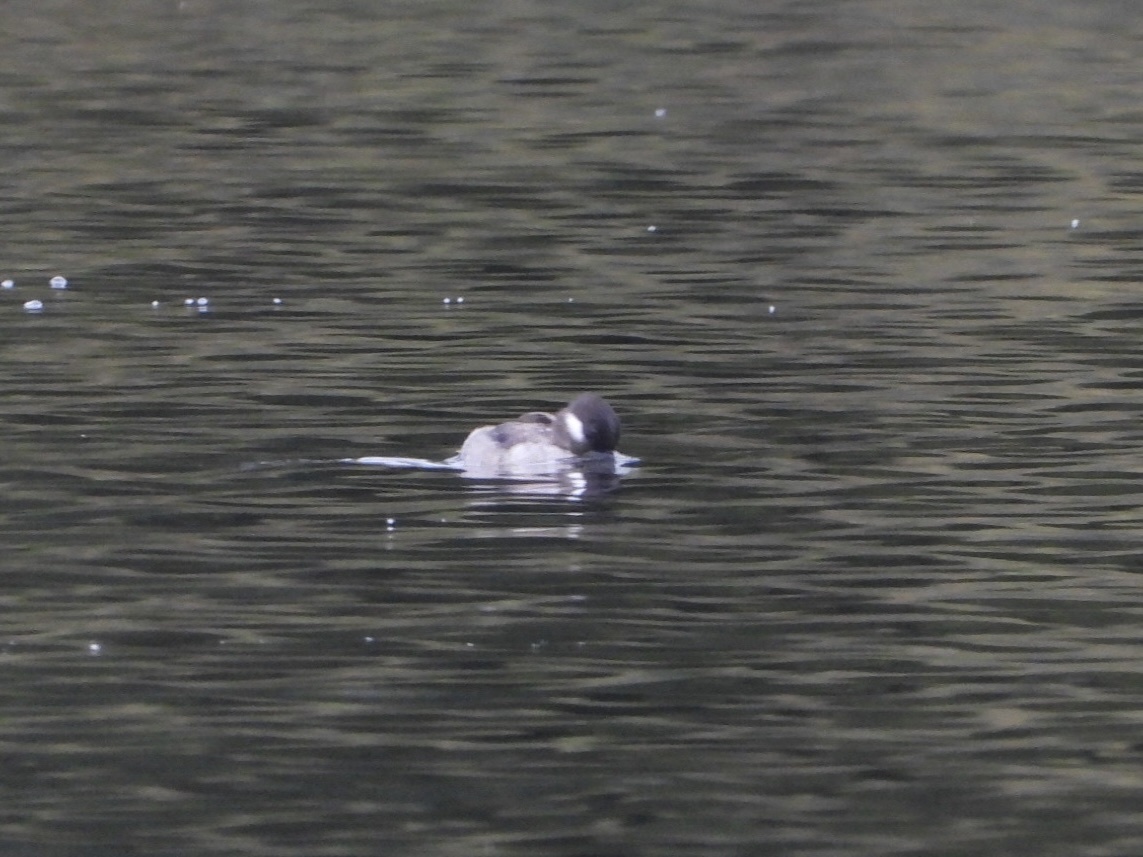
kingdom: Animalia
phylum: Chordata
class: Aves
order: Anseriformes
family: Anatidae
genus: Bucephala
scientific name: Bucephala albeola
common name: Bufflehead
